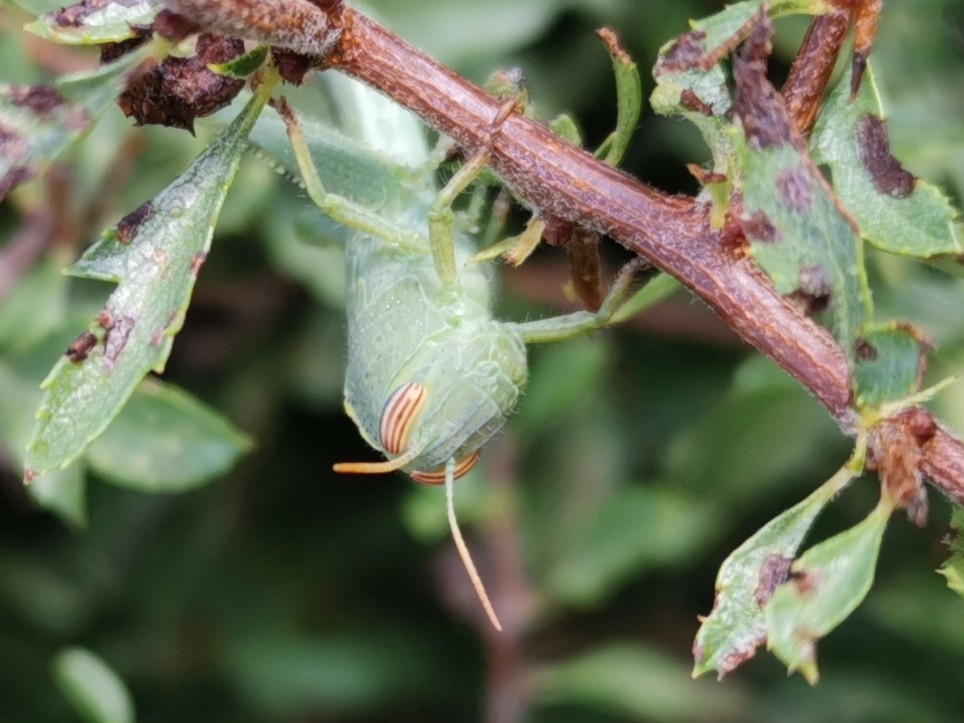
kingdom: Animalia
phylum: Arthropoda
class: Insecta
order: Orthoptera
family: Acrididae
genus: Anacridium
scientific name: Anacridium aegyptium
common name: Egyptian grasshopper
